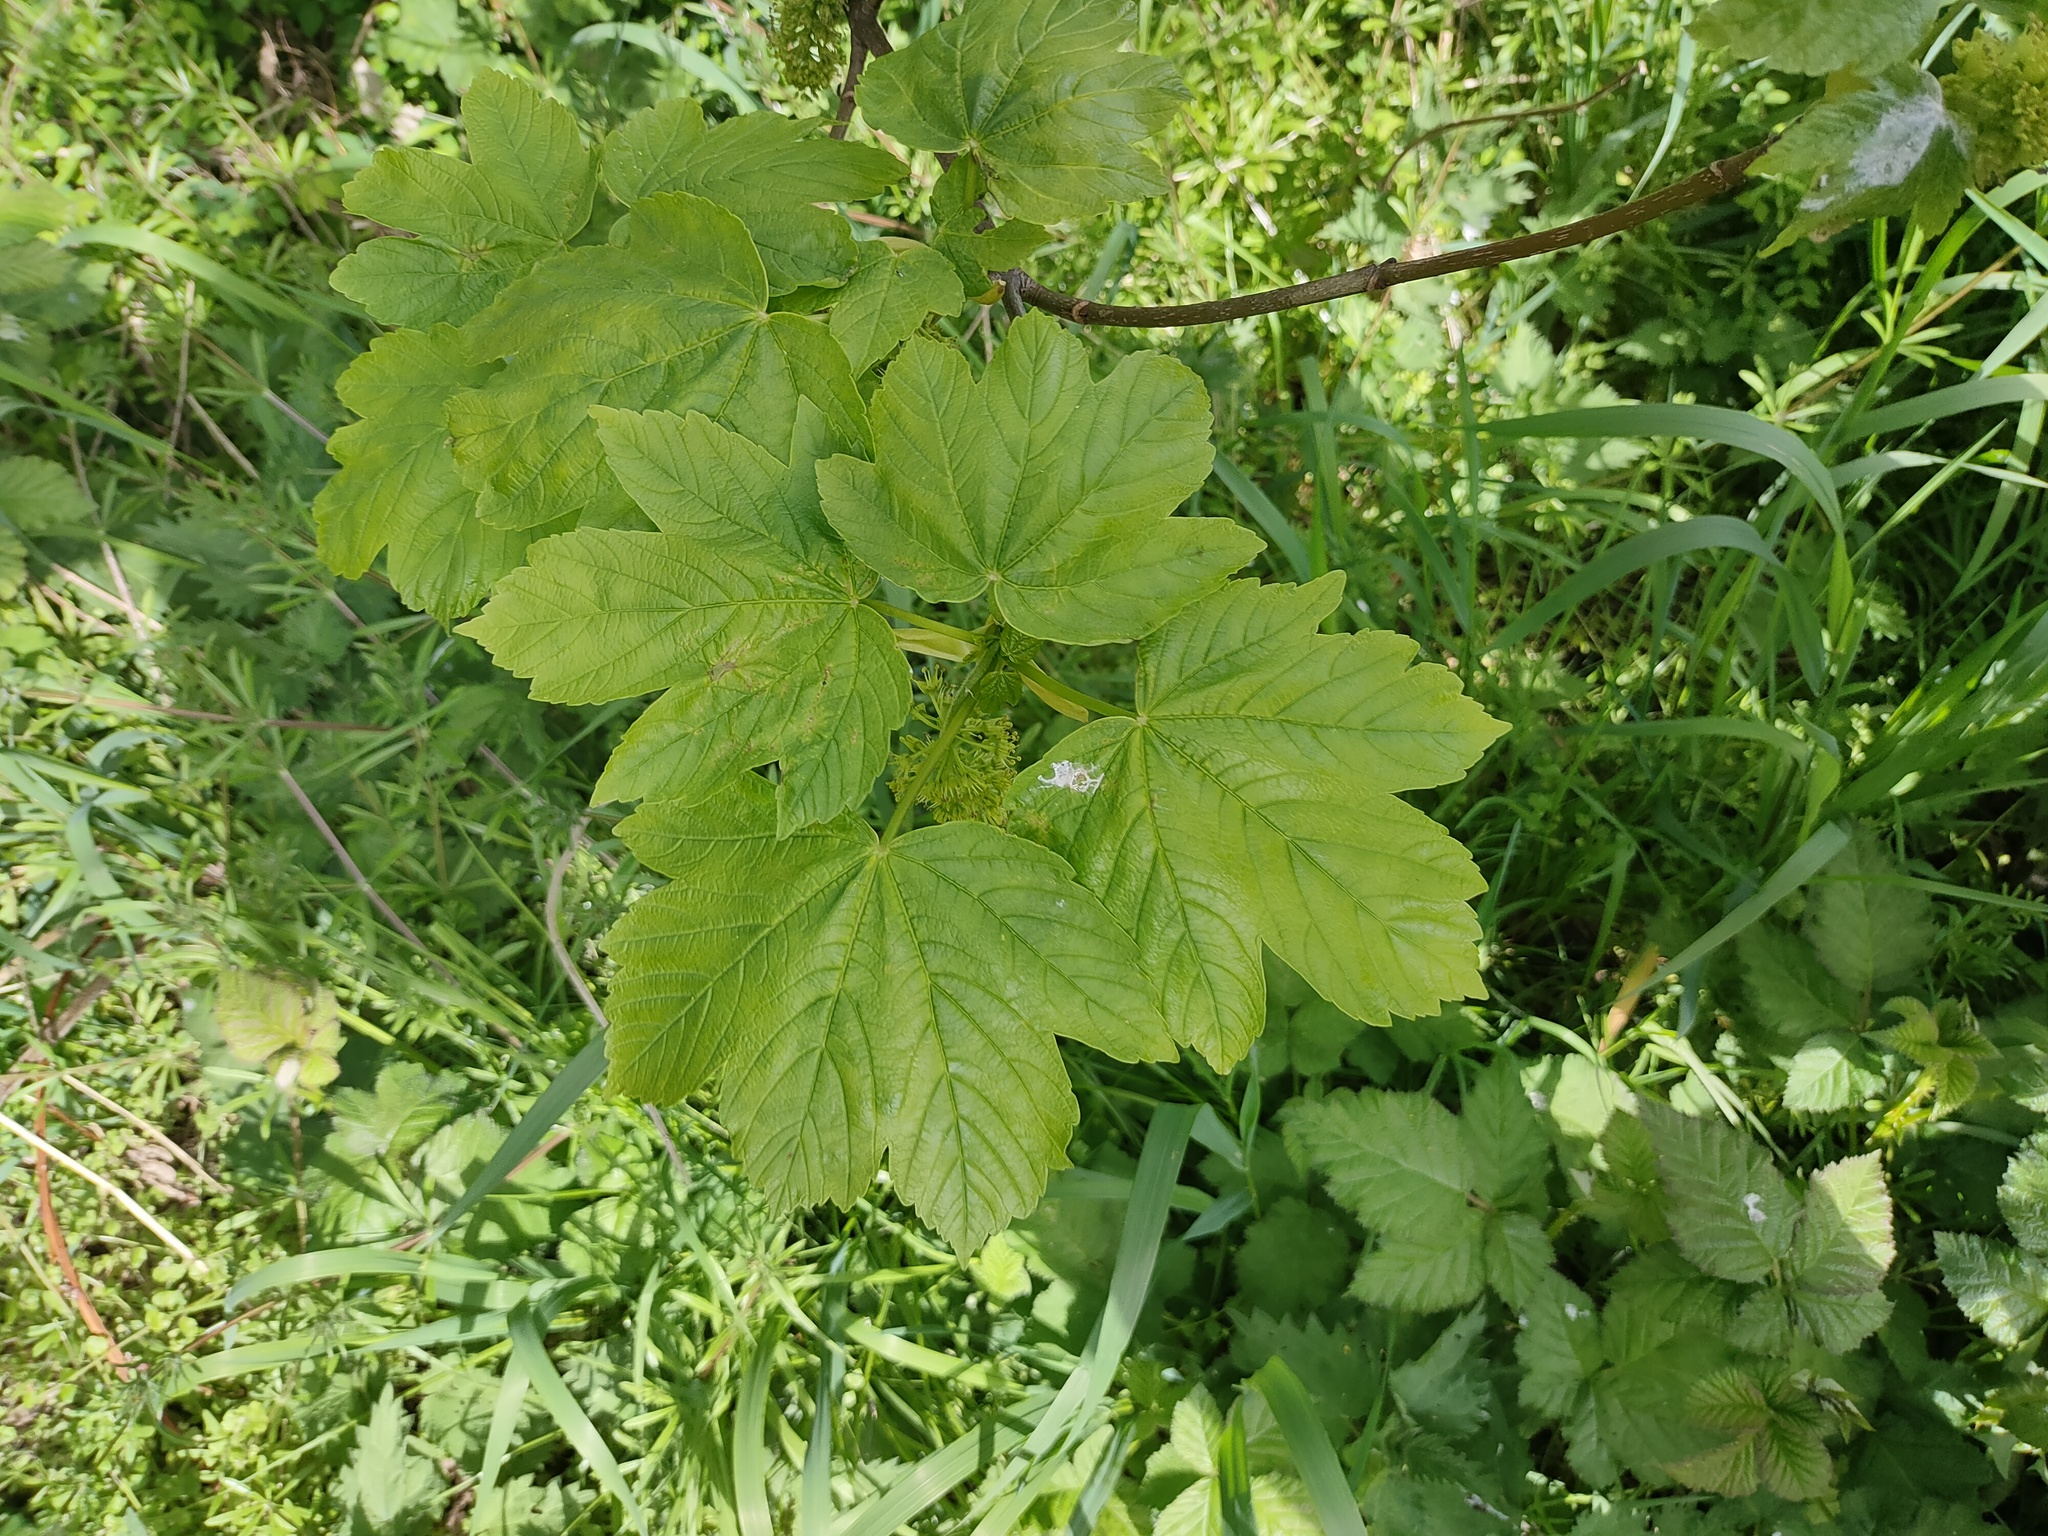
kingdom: Plantae
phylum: Tracheophyta
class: Magnoliopsida
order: Sapindales
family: Sapindaceae
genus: Acer
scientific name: Acer pseudoplatanus
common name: Sycamore
